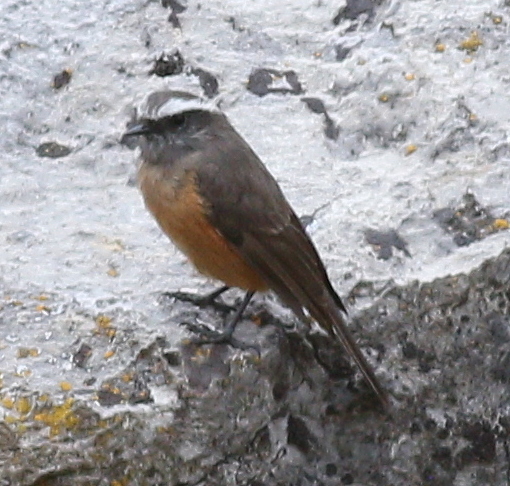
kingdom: Animalia
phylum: Chordata
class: Aves
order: Passeriformes
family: Tyrannidae
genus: Ochthoeca
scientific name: Ochthoeca oenanthoides
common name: D'orbigny's chat-tyrant
